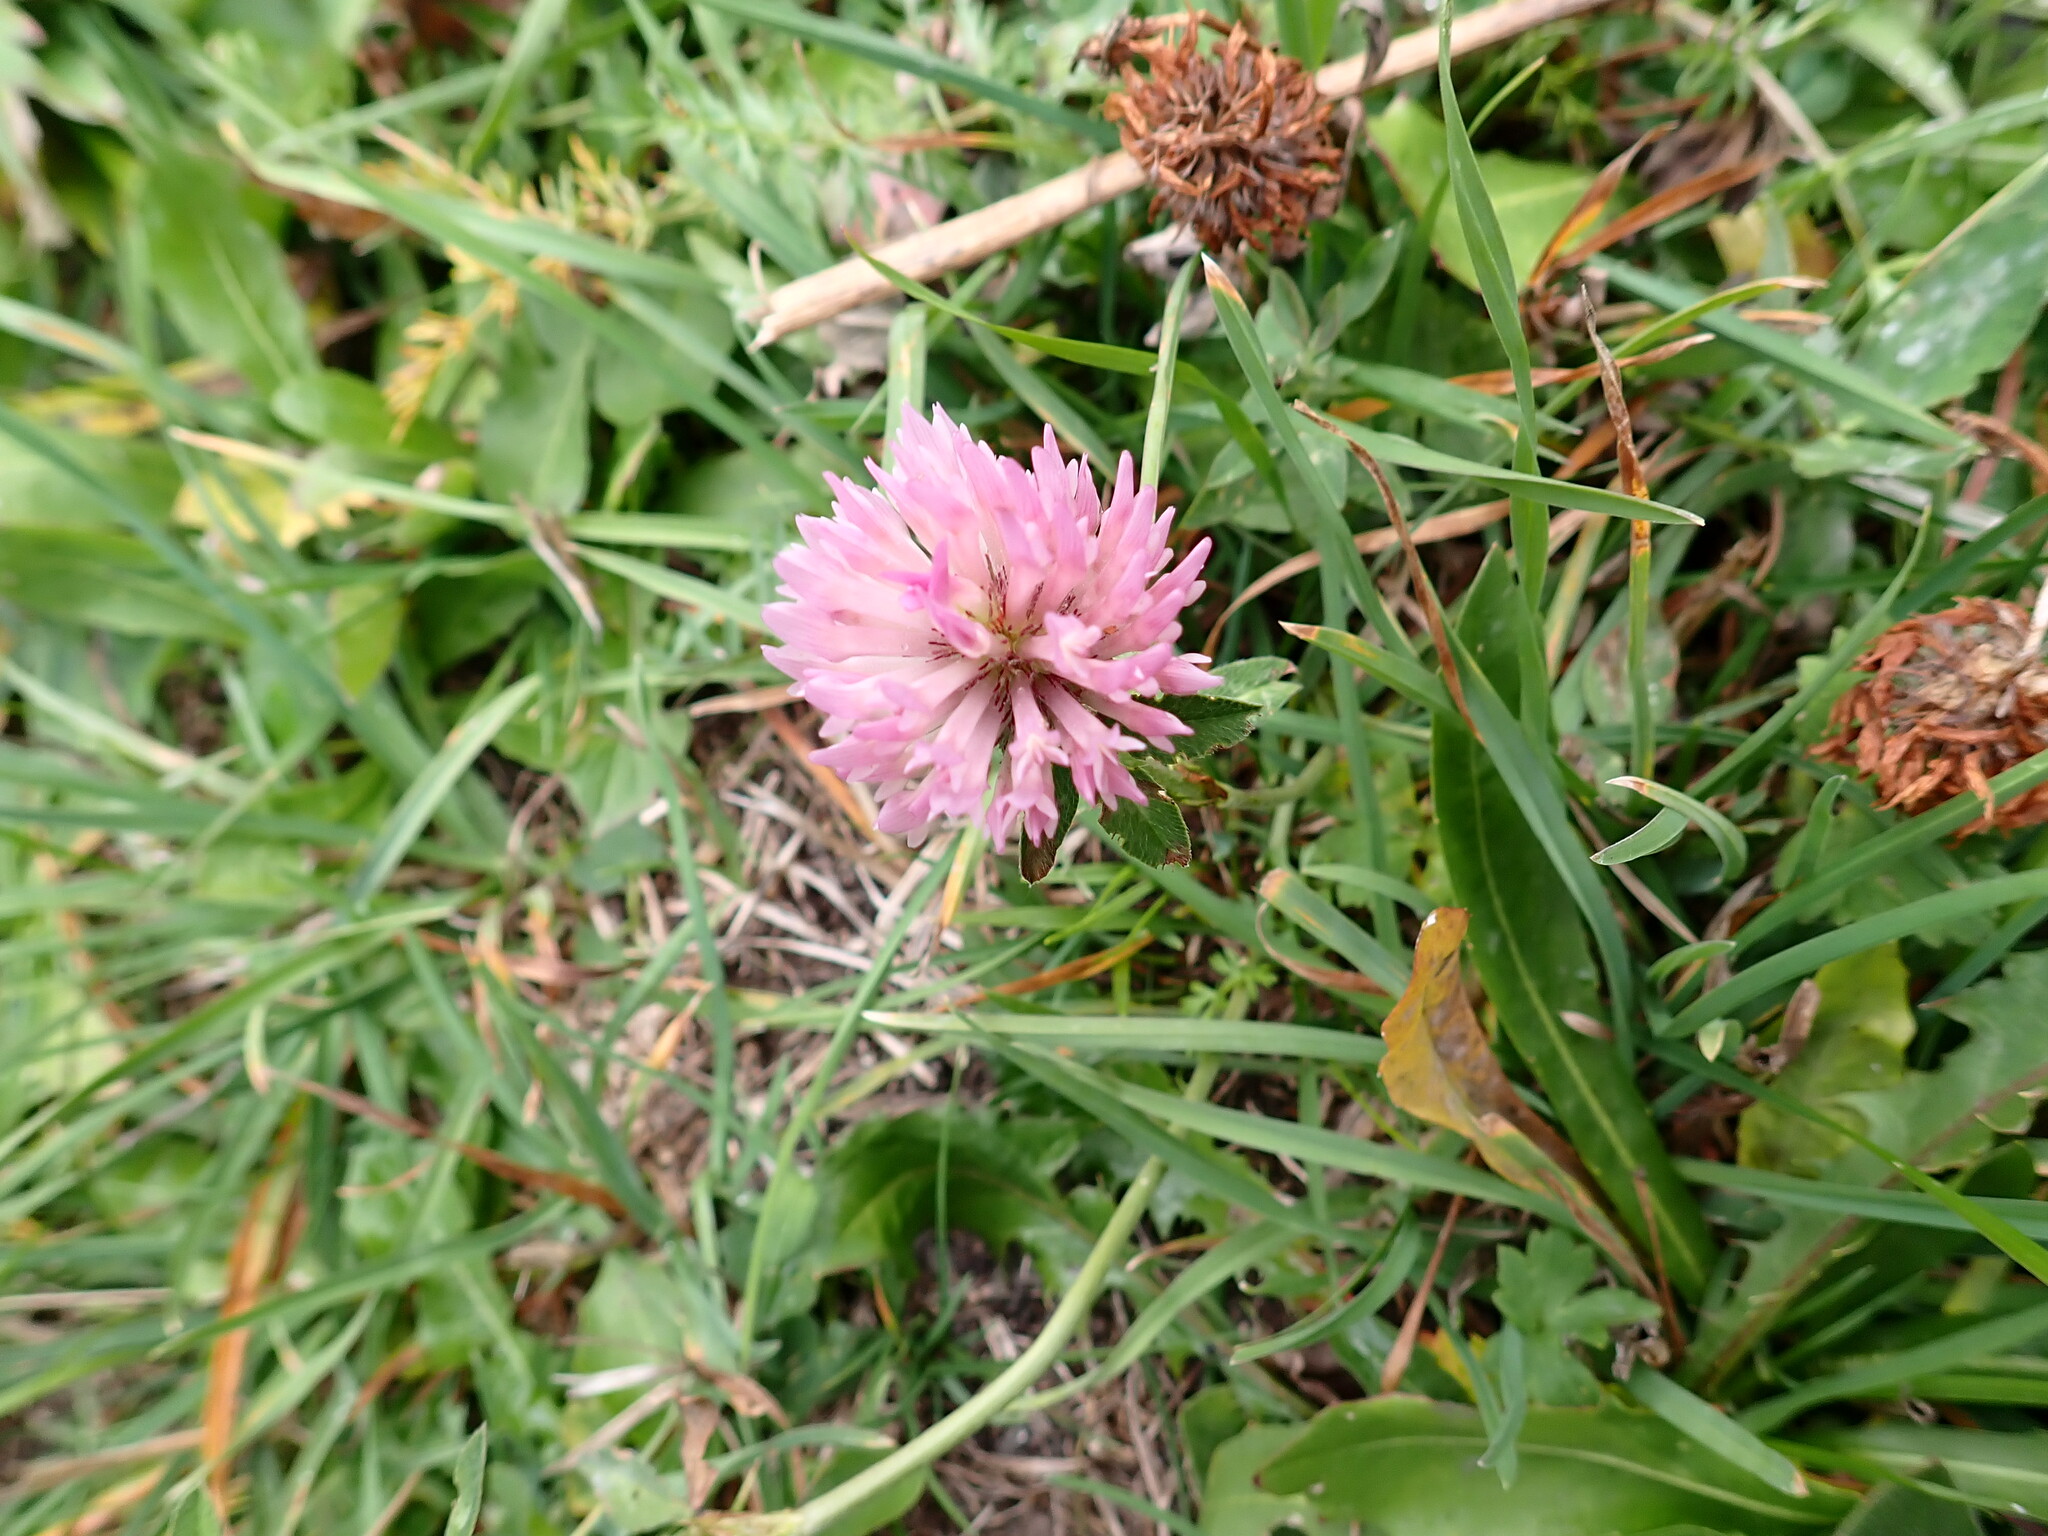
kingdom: Plantae
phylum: Tracheophyta
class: Magnoliopsida
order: Fabales
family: Fabaceae
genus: Trifolium
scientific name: Trifolium pratense
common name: Red clover
